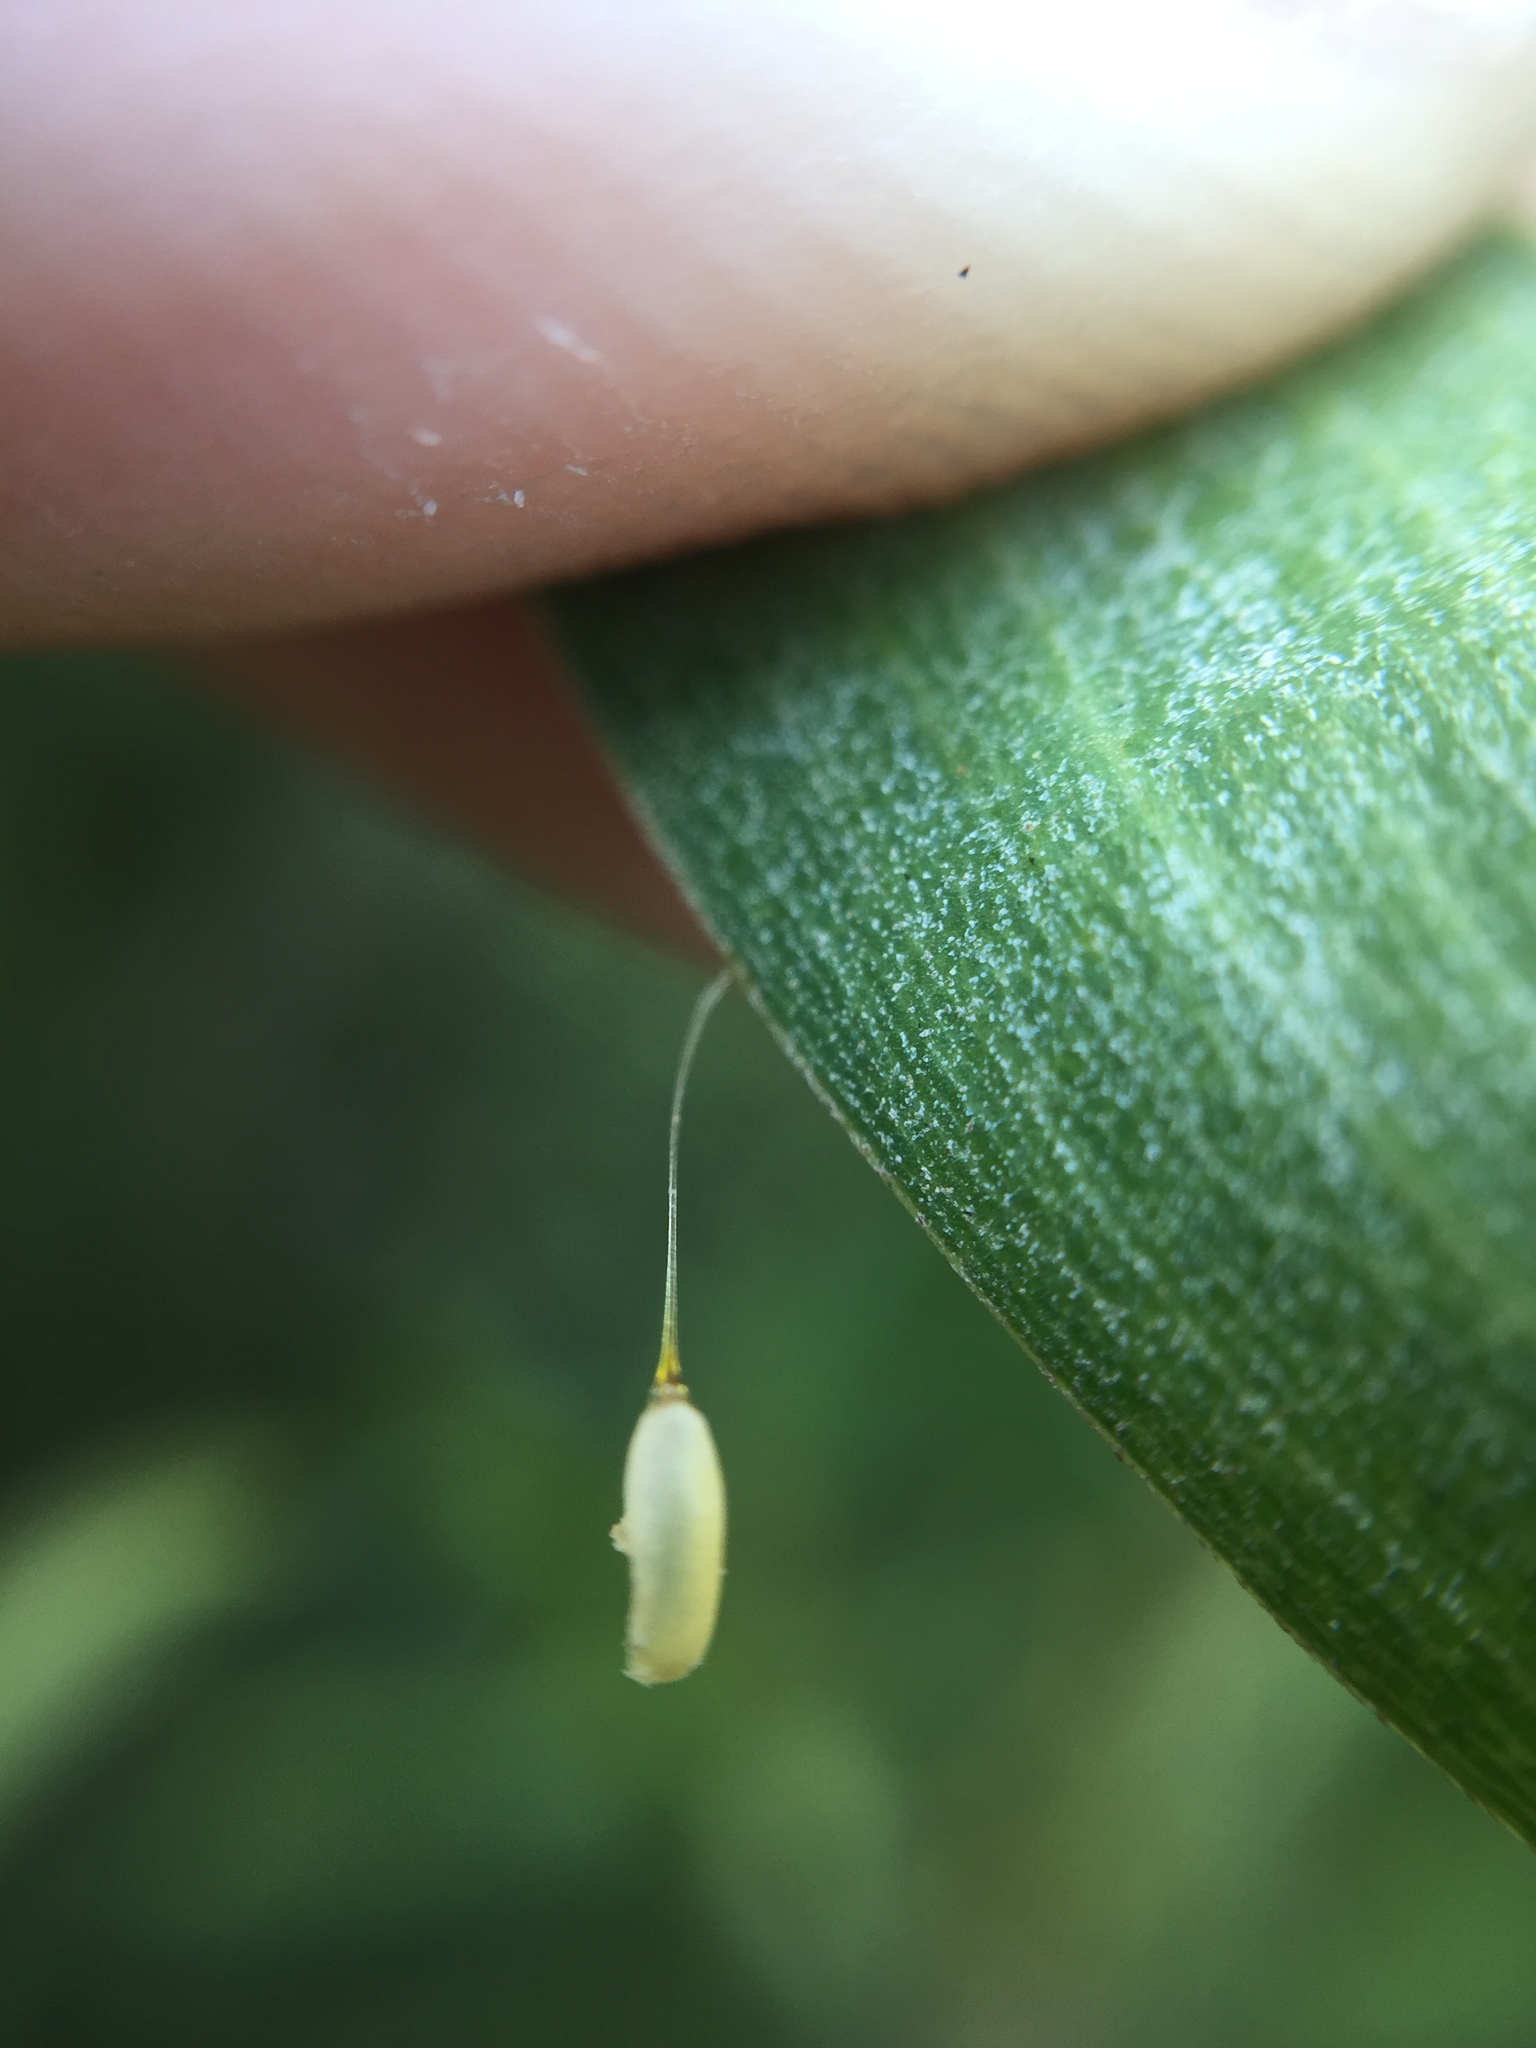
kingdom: Animalia
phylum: Arthropoda
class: Insecta
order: Coleoptera
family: Chrysomelidae
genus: Dicranosterna
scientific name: Dicranosterna
